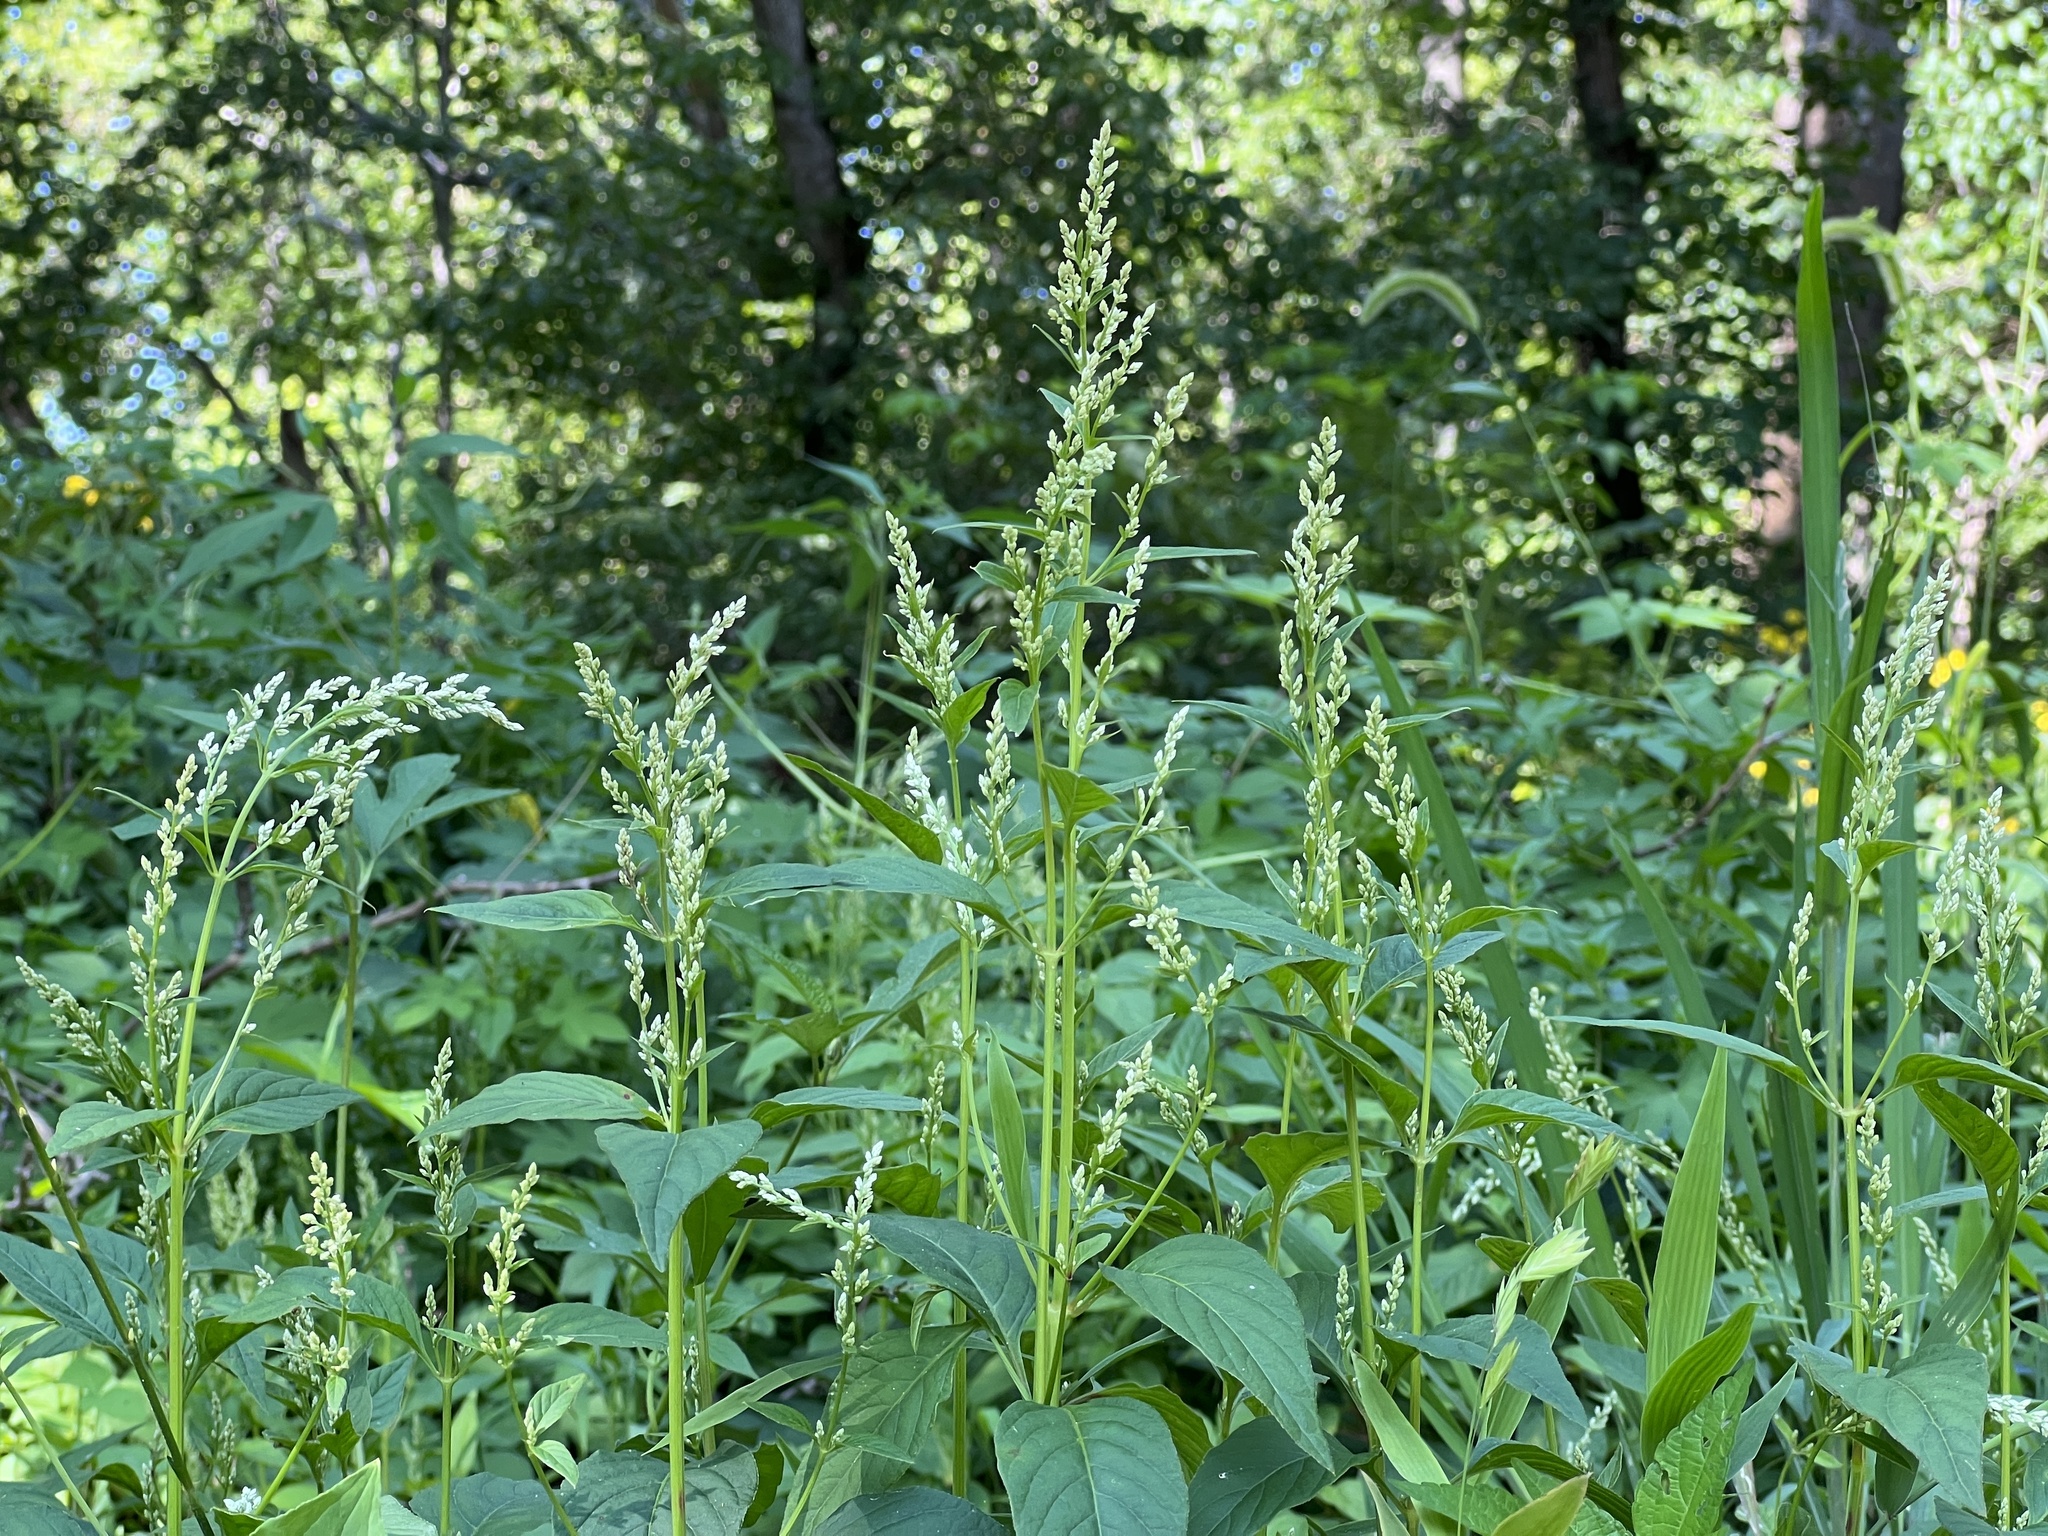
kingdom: Plantae
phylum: Tracheophyta
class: Magnoliopsida
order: Caryophyllales
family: Amaranthaceae
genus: Iresine
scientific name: Iresine rhizomatosa
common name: Juda's-bush
